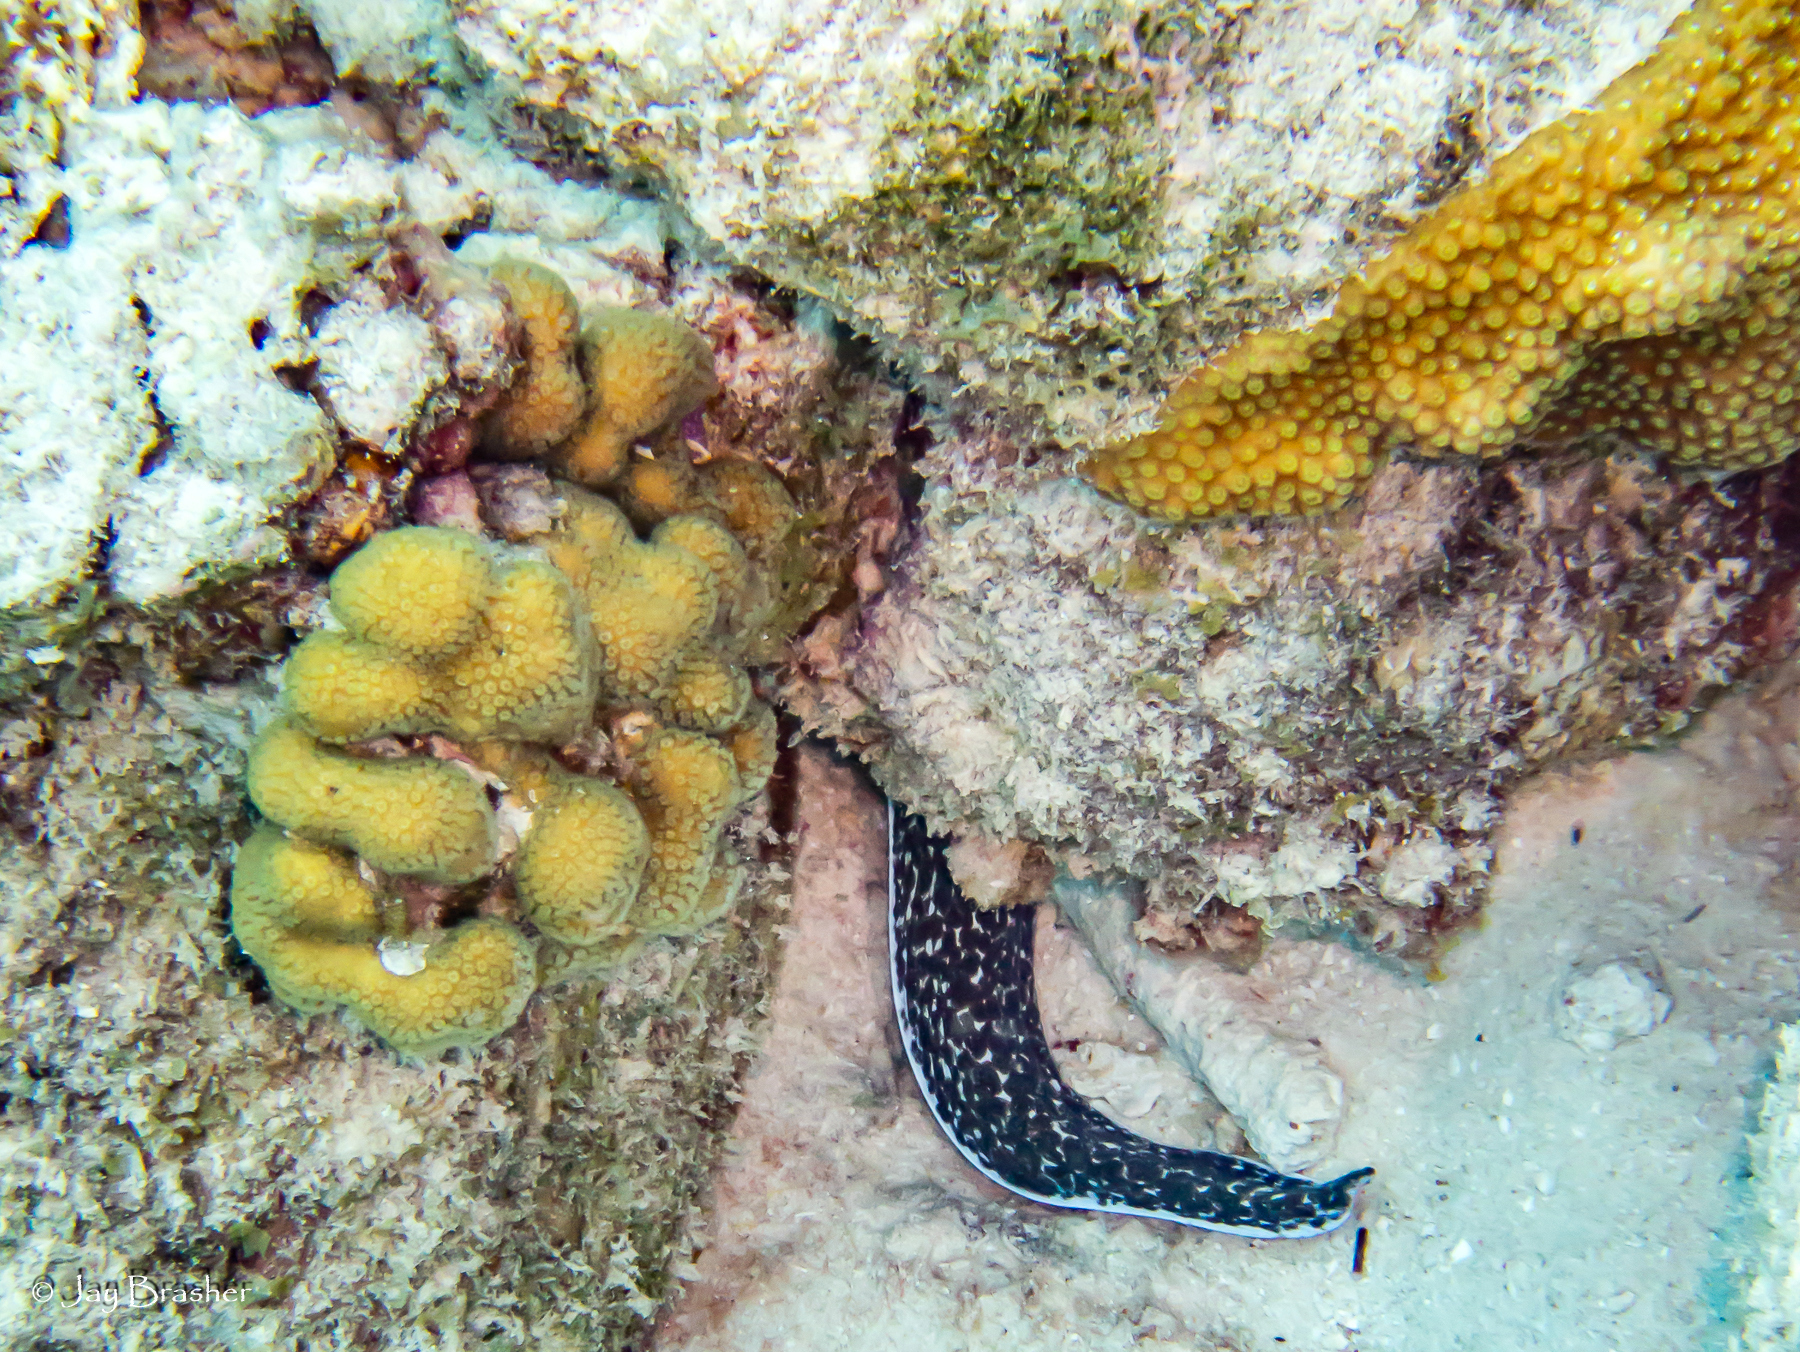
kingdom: Animalia
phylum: Chordata
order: Anguilliformes
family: Muraenidae
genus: Gymnothorax
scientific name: Gymnothorax moringa
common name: Spotted moray
